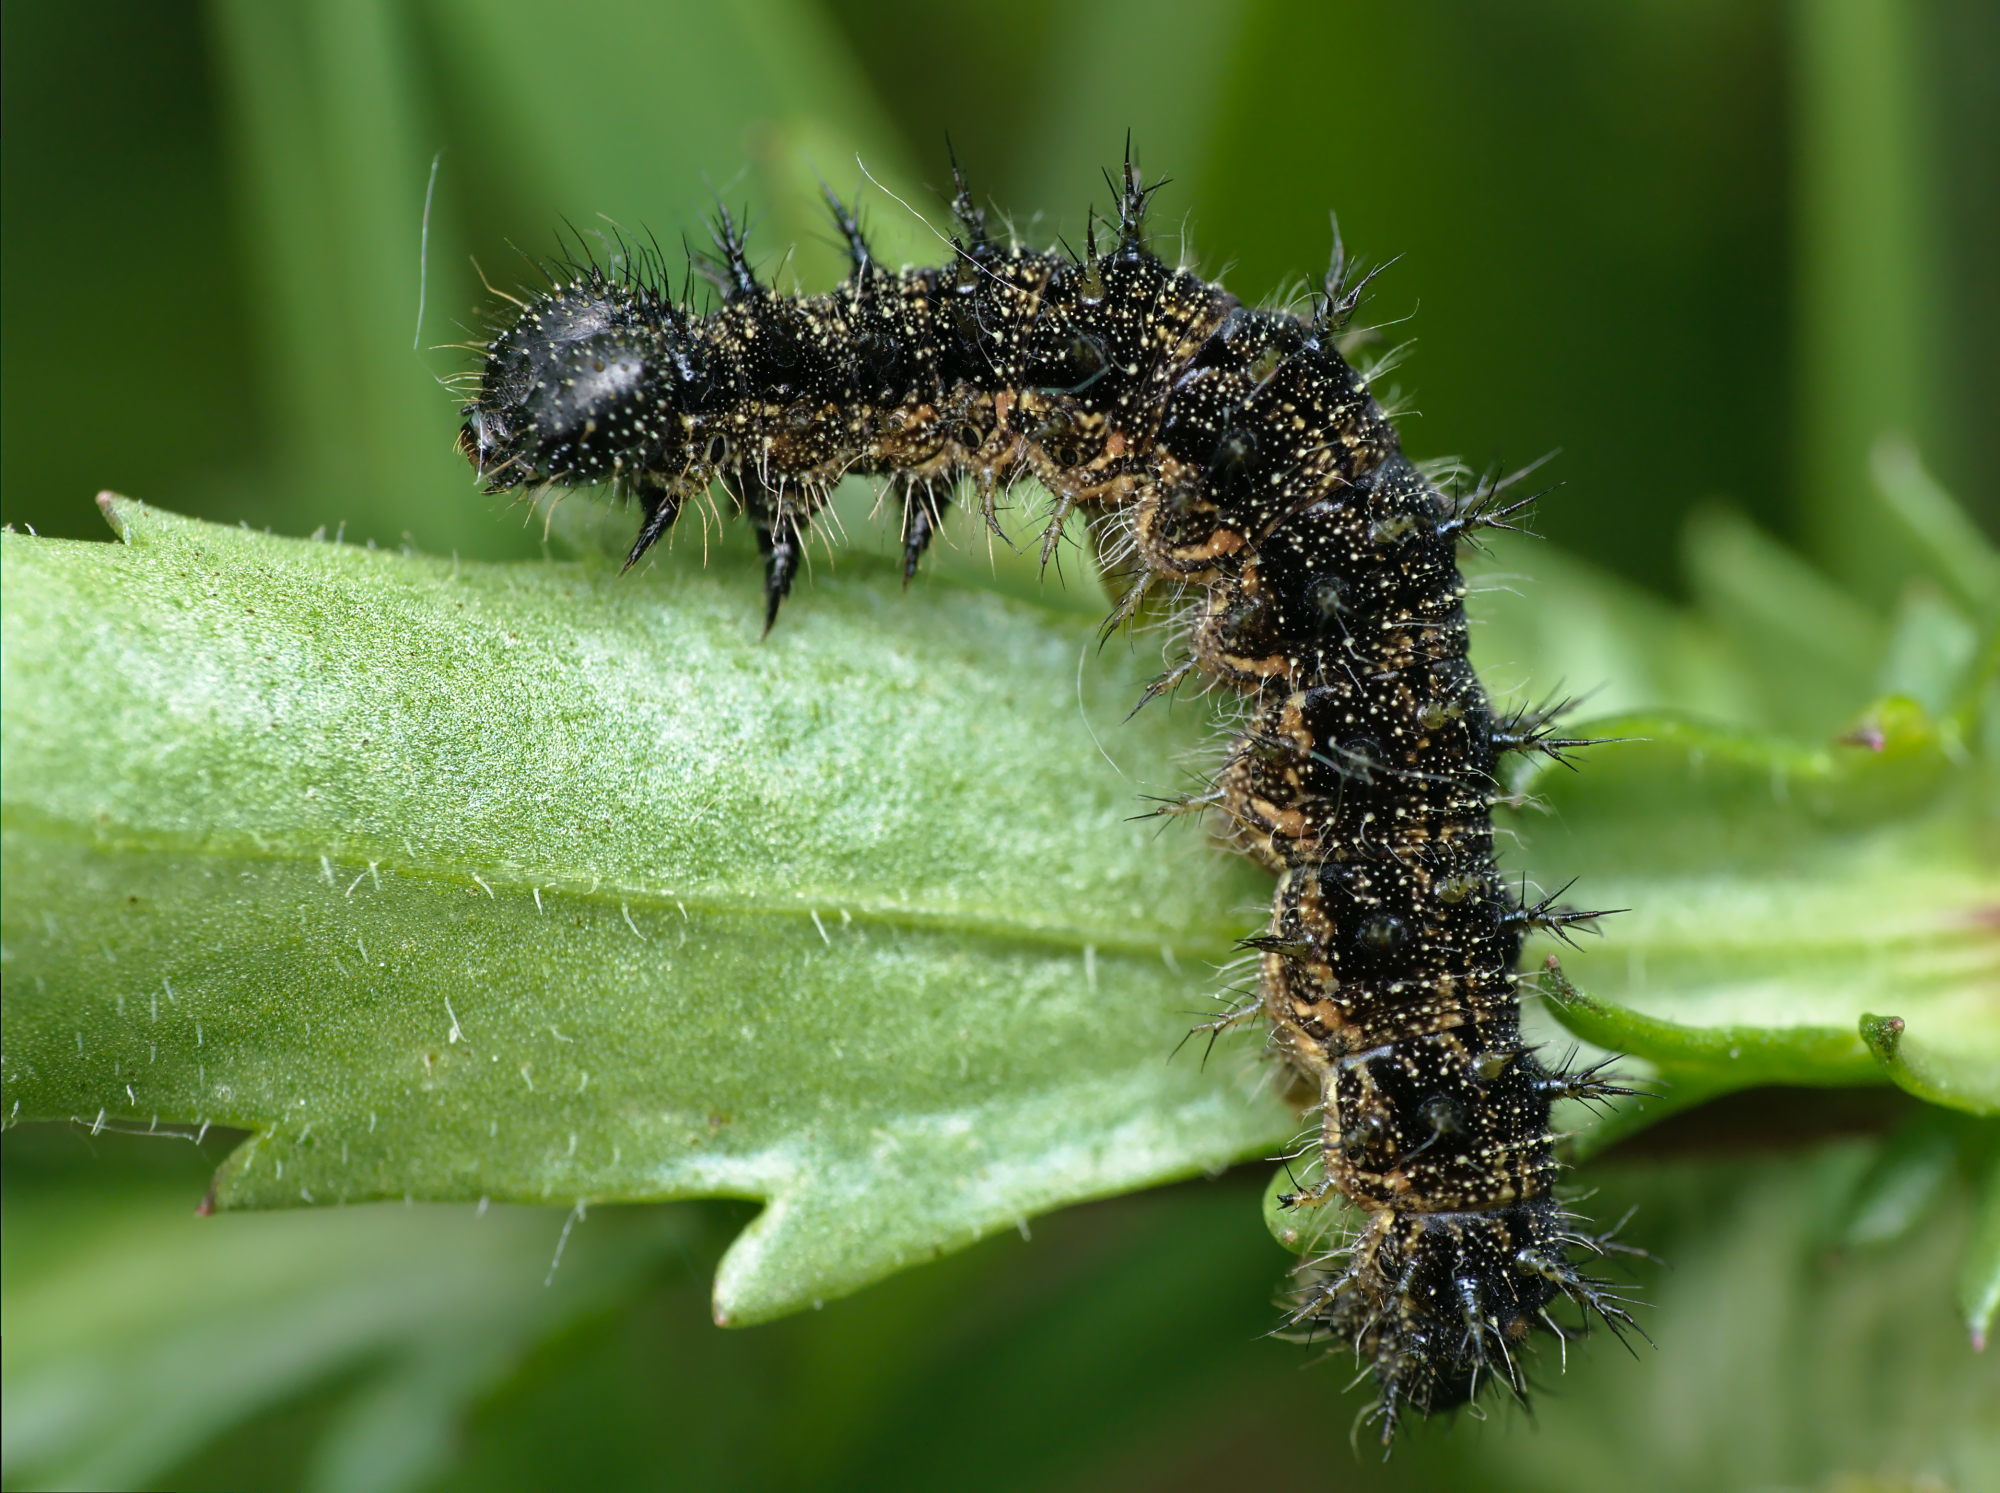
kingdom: Animalia
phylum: Arthropoda
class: Insecta
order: Lepidoptera
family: Nymphalidae
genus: Aglais
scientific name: Aglais urticae
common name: Small tortoiseshell
